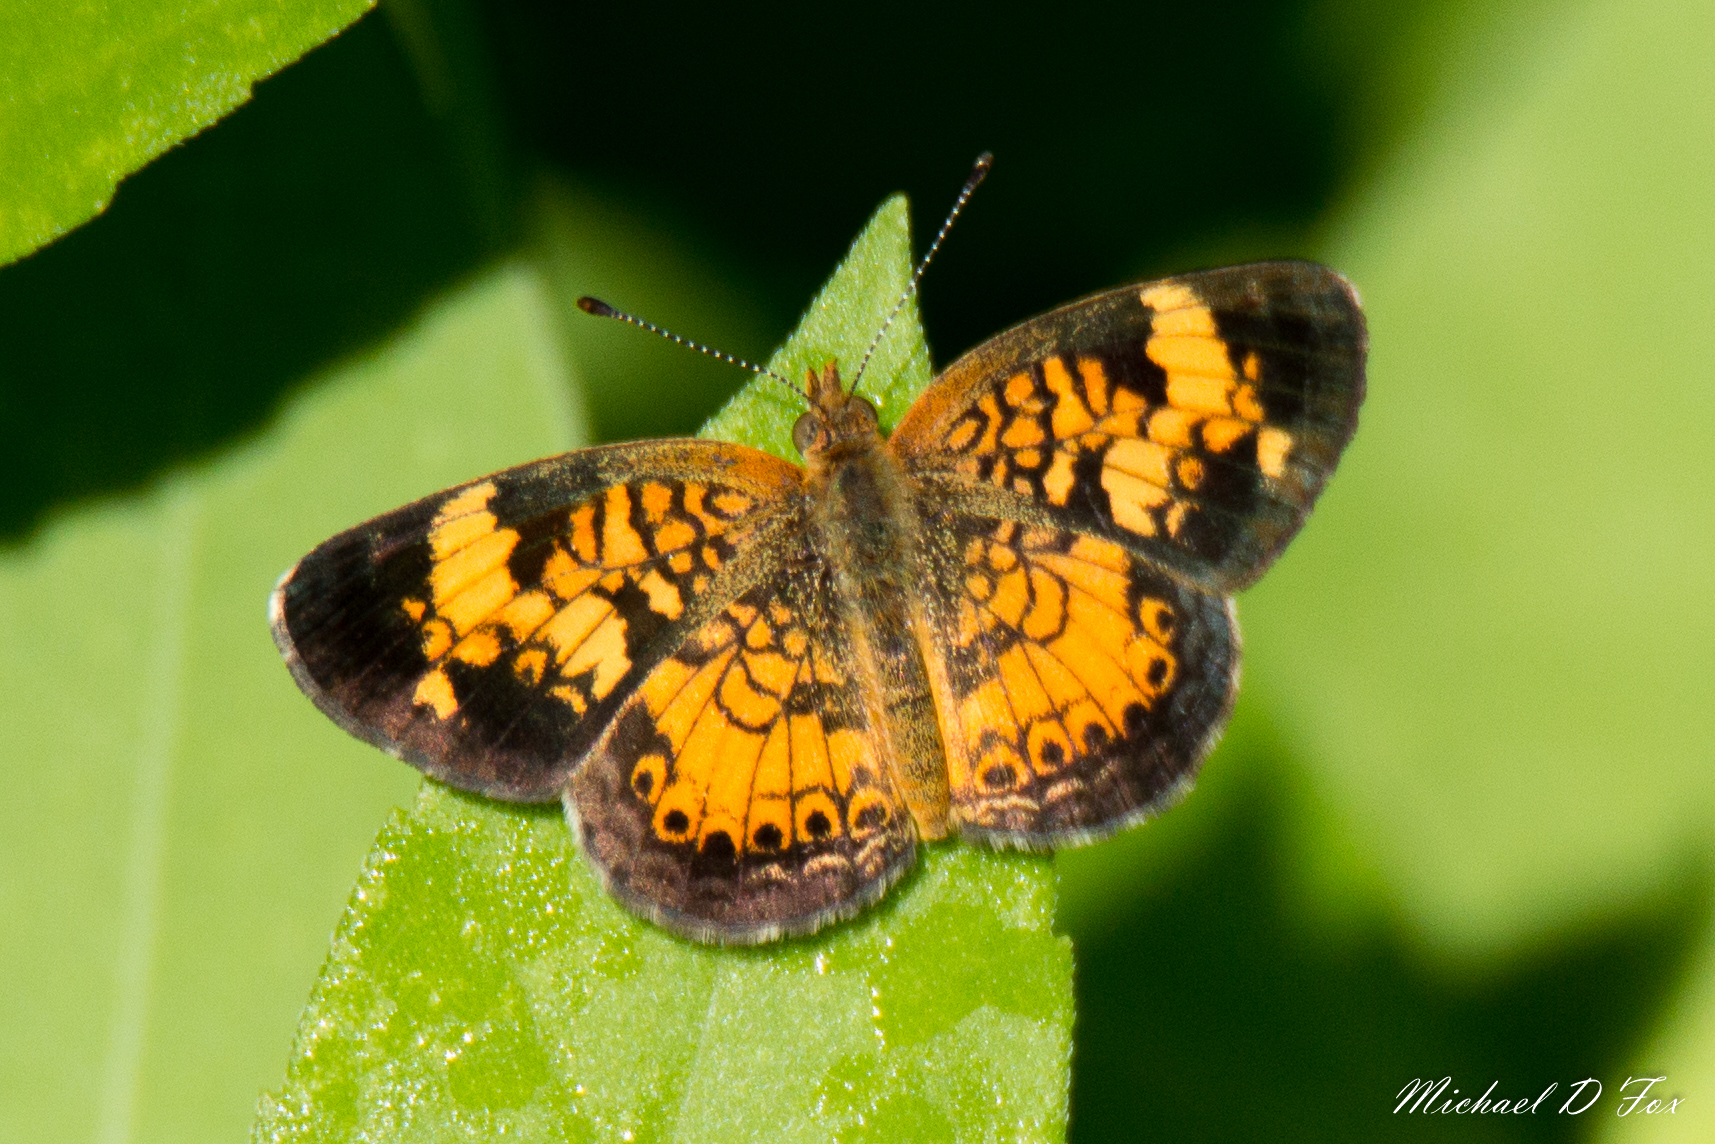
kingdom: Animalia
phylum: Arthropoda
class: Insecta
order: Lepidoptera
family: Nymphalidae
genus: Phyciodes
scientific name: Phyciodes tharos
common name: Pearl crescent
